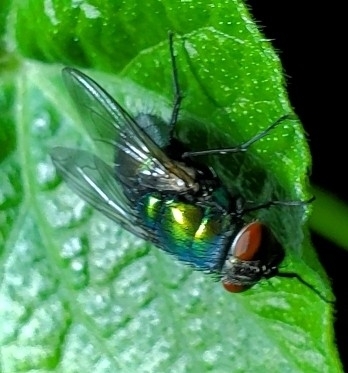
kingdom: Animalia
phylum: Arthropoda
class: Insecta
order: Diptera
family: Calliphoridae
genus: Lucilia
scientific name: Lucilia sericata
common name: Blow fly
